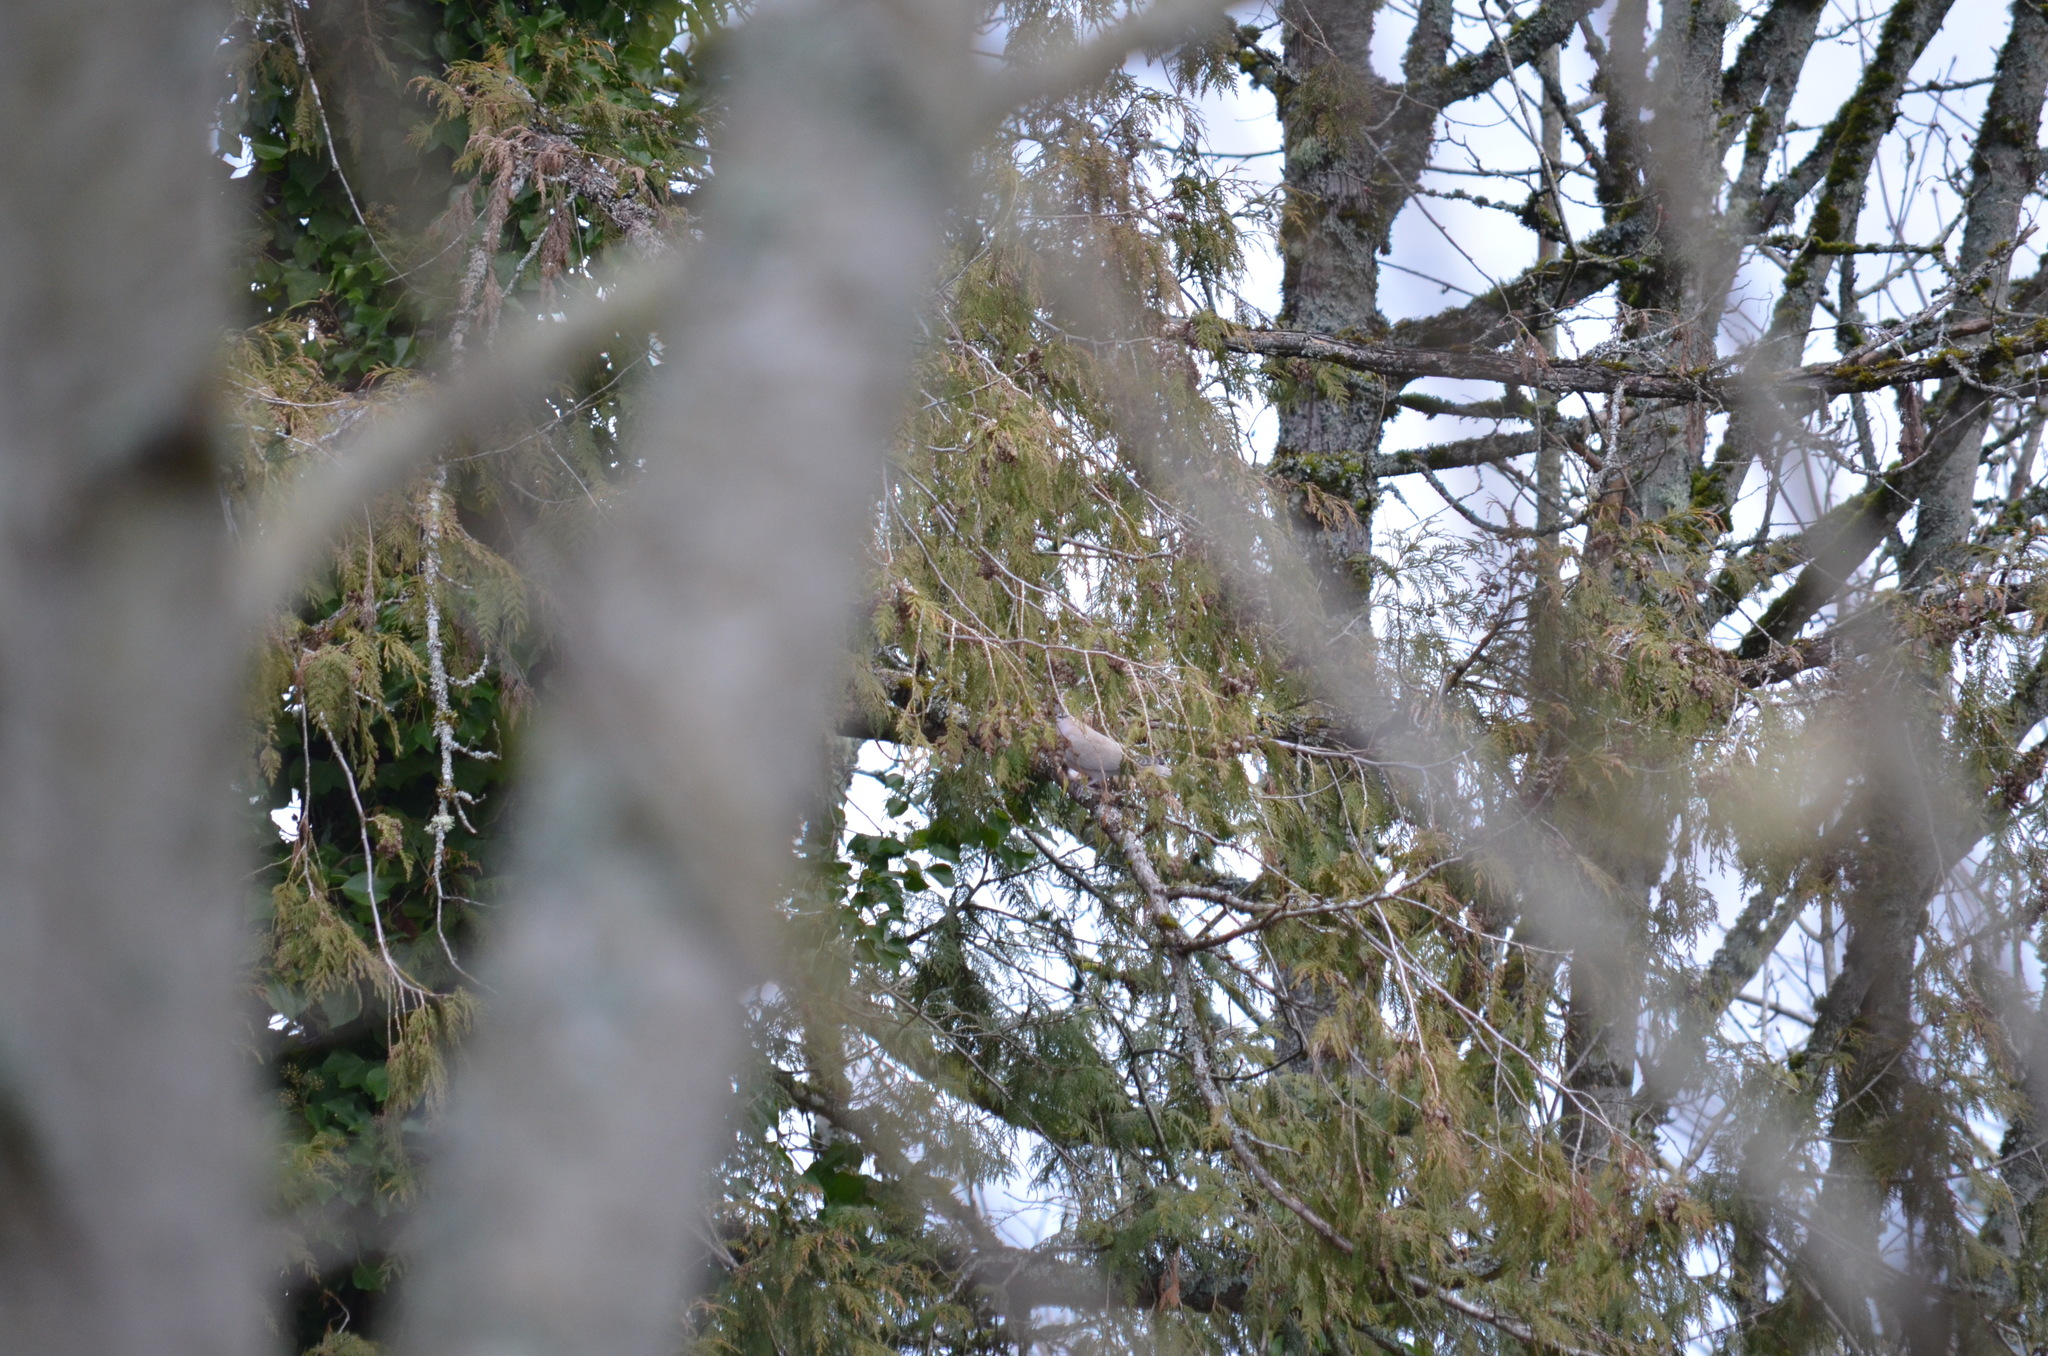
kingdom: Animalia
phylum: Chordata
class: Aves
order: Columbiformes
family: Columbidae
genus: Streptopelia
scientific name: Streptopelia decaocto
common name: Eurasian collared dove
